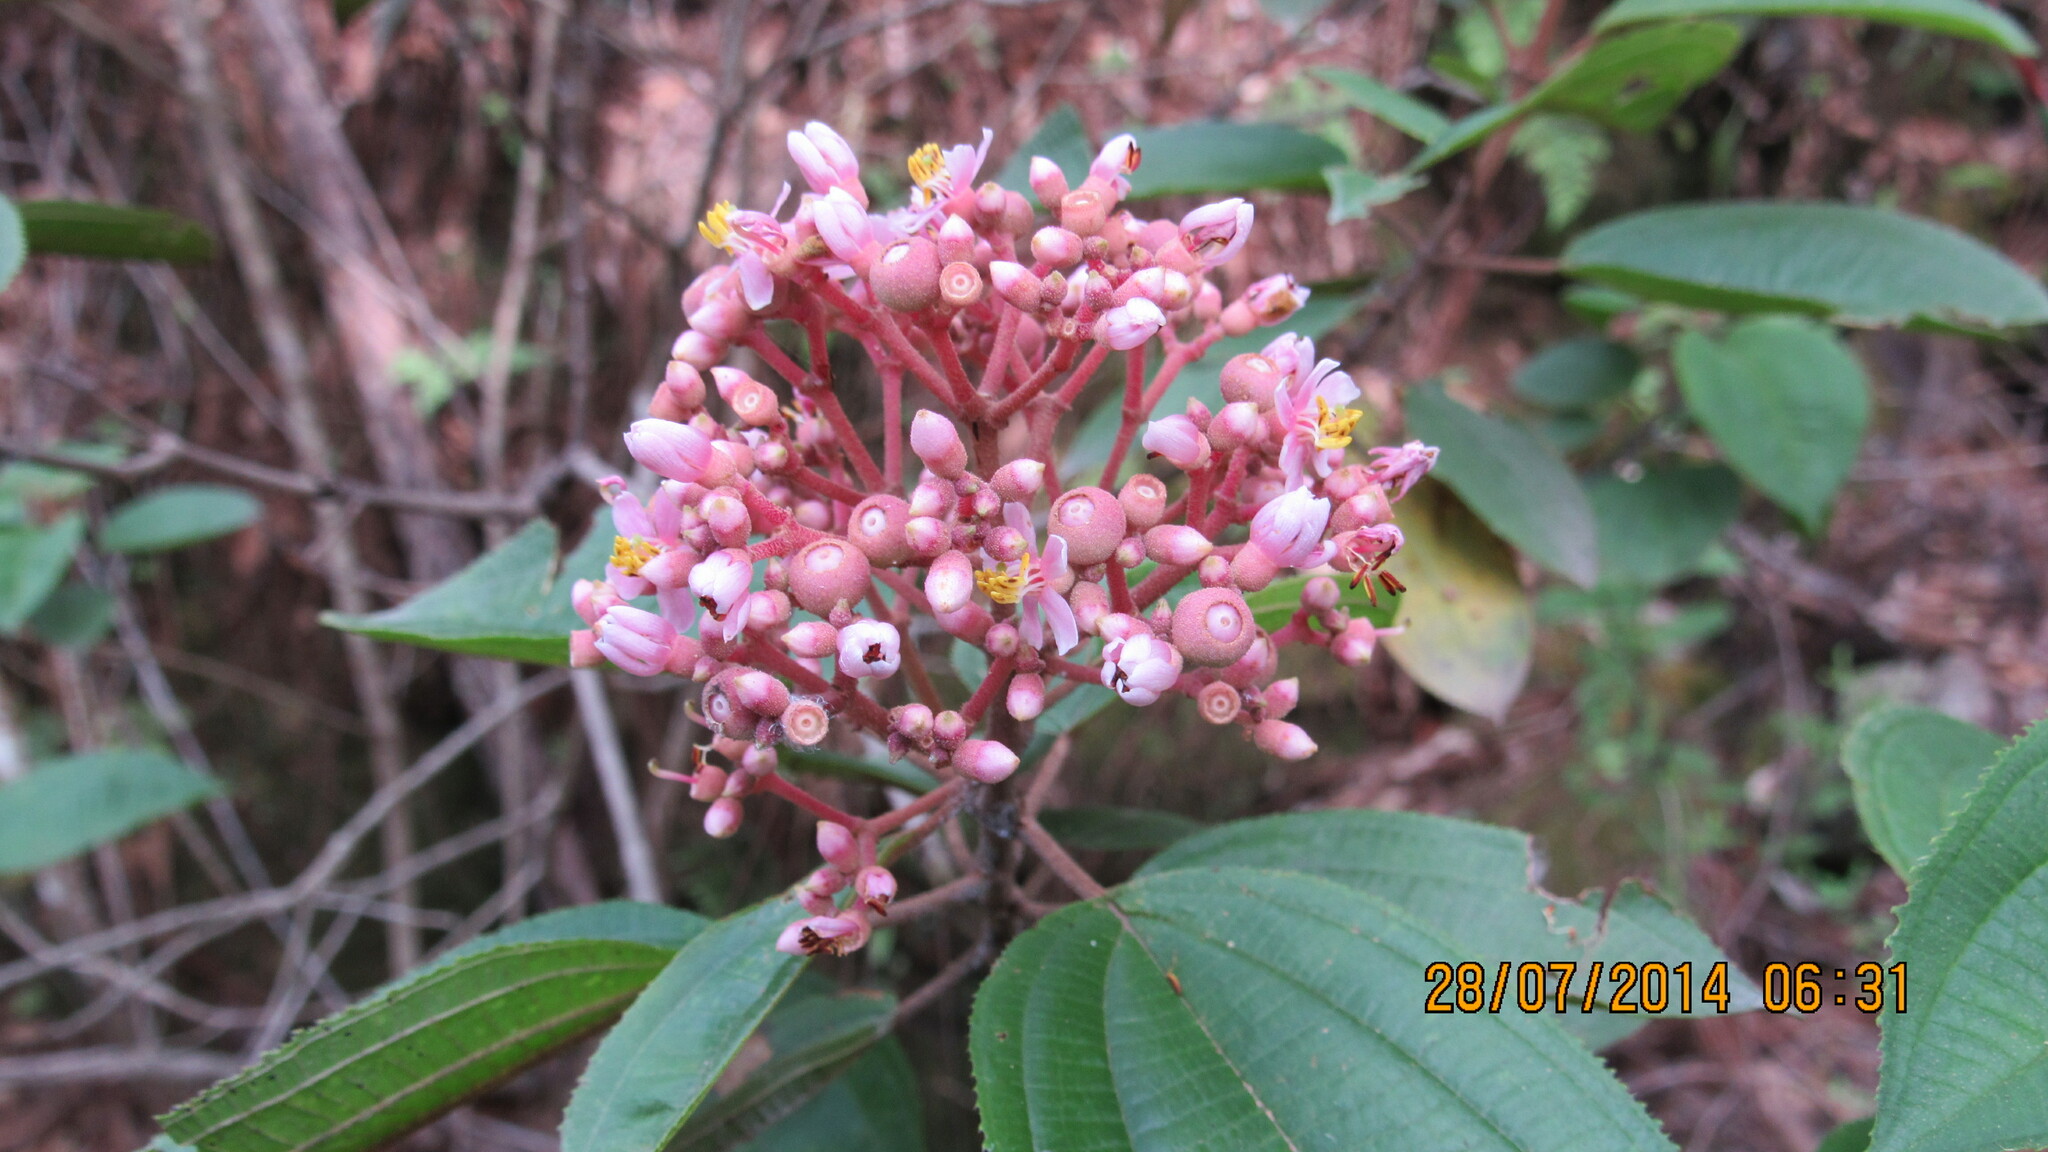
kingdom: Plantae
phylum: Tracheophyta
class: Magnoliopsida
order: Myrtales
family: Melastomataceae
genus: Miconia
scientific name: Miconia xalapensis
